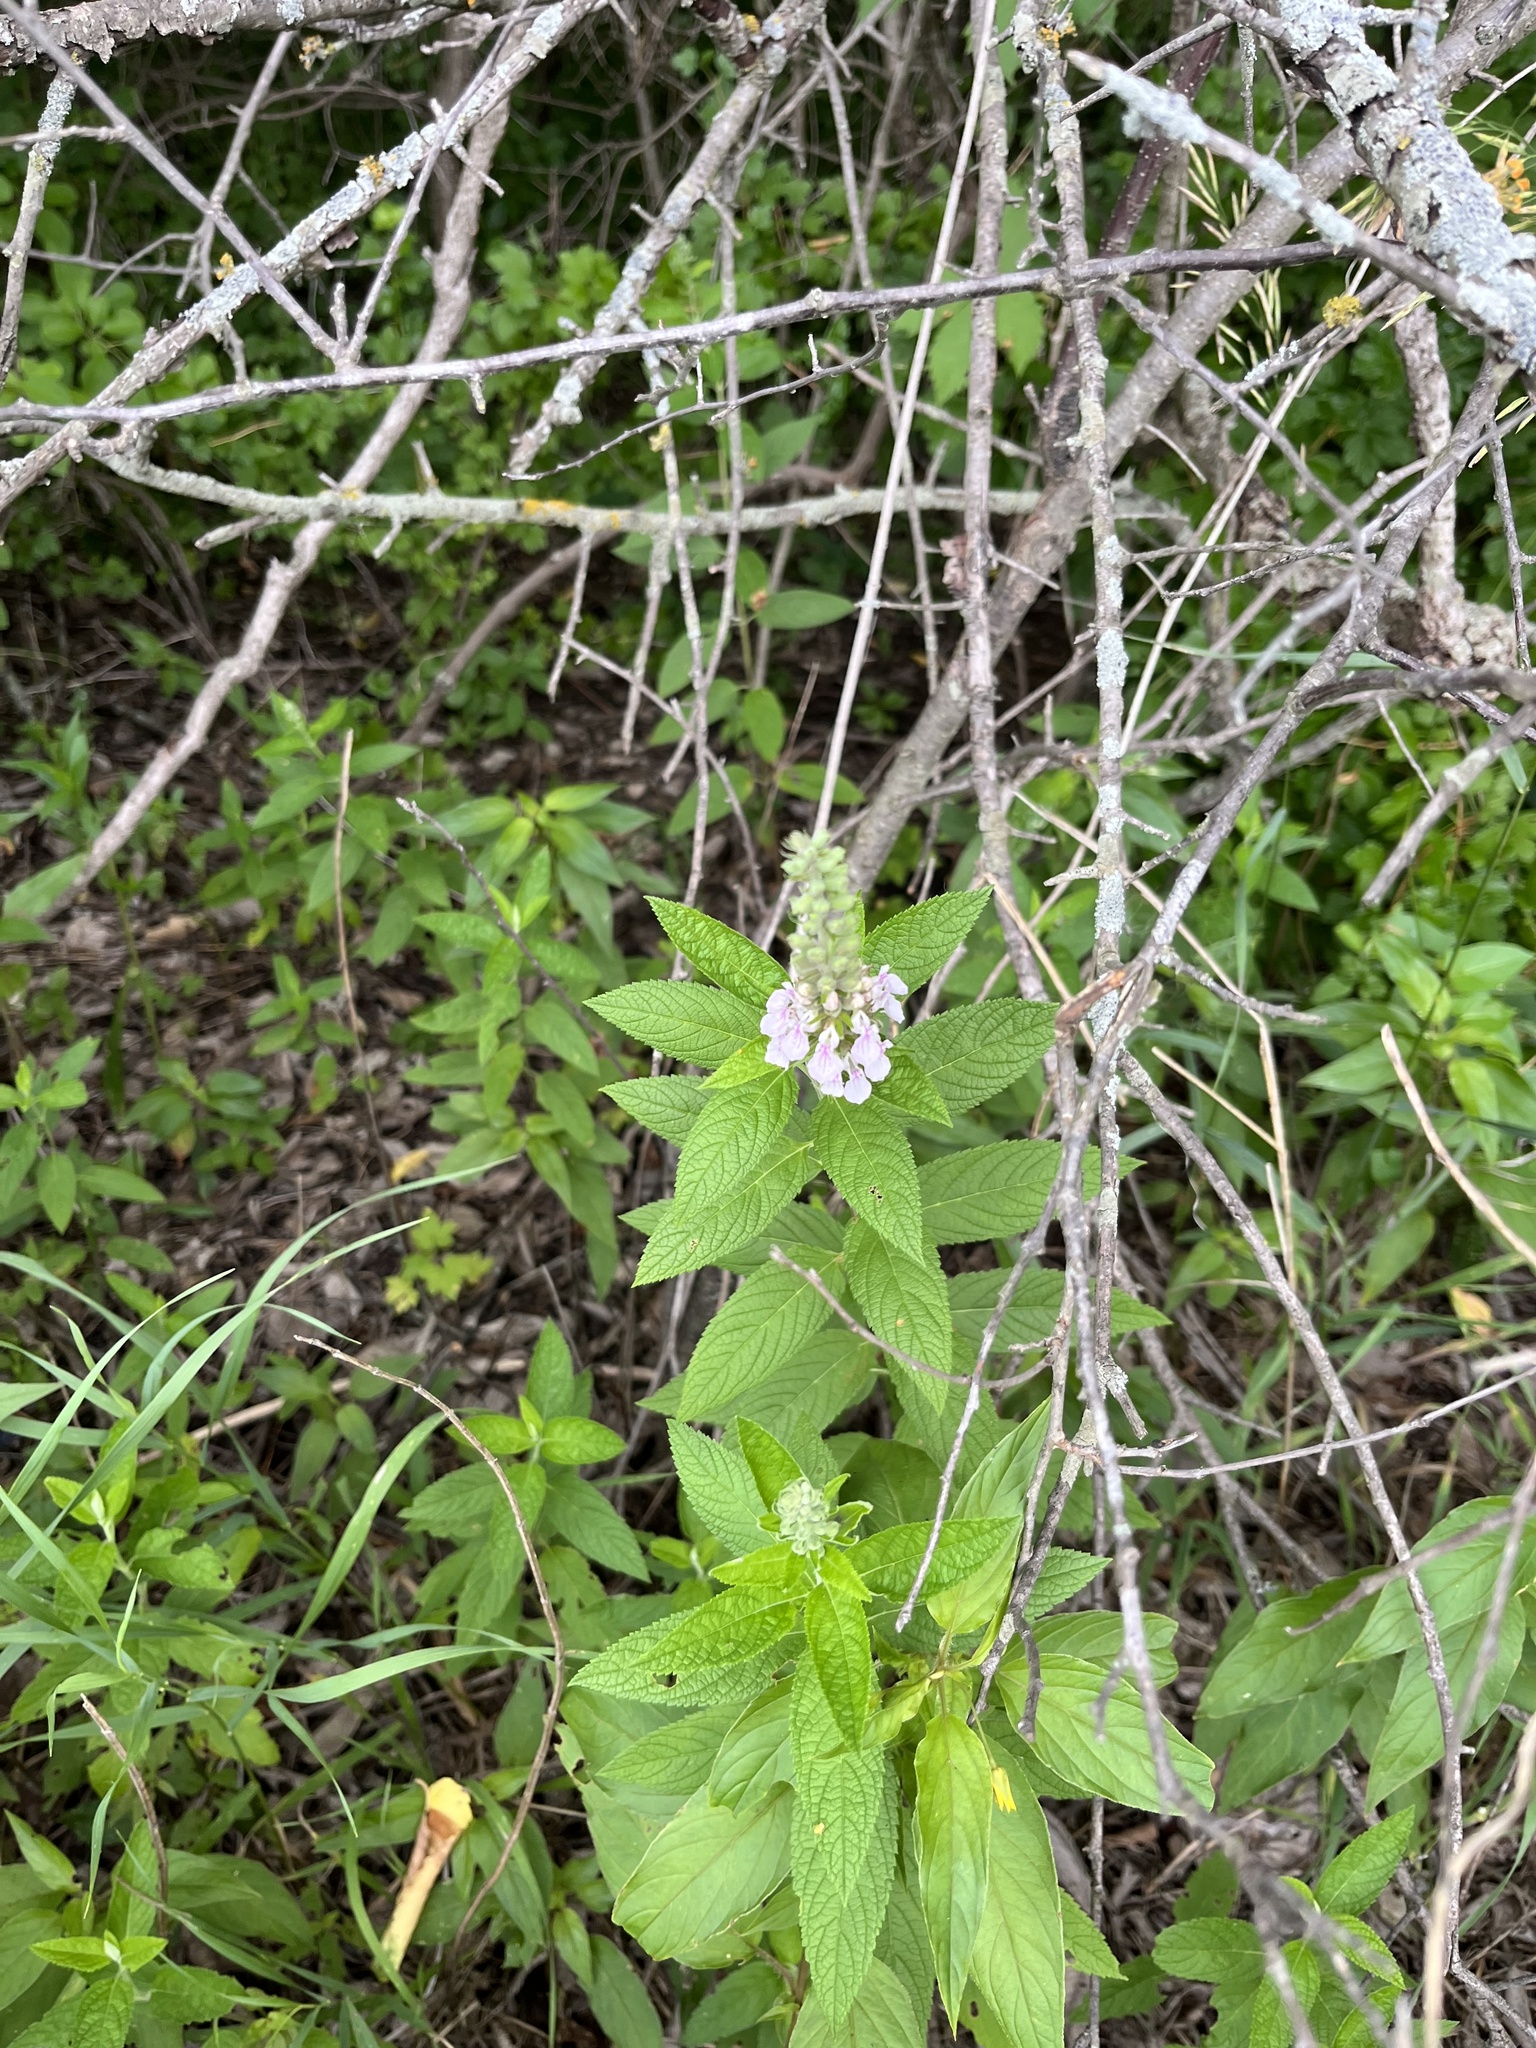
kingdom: Plantae
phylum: Tracheophyta
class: Magnoliopsida
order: Lamiales
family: Lamiaceae
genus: Teucrium
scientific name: Teucrium canadense
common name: American germander
